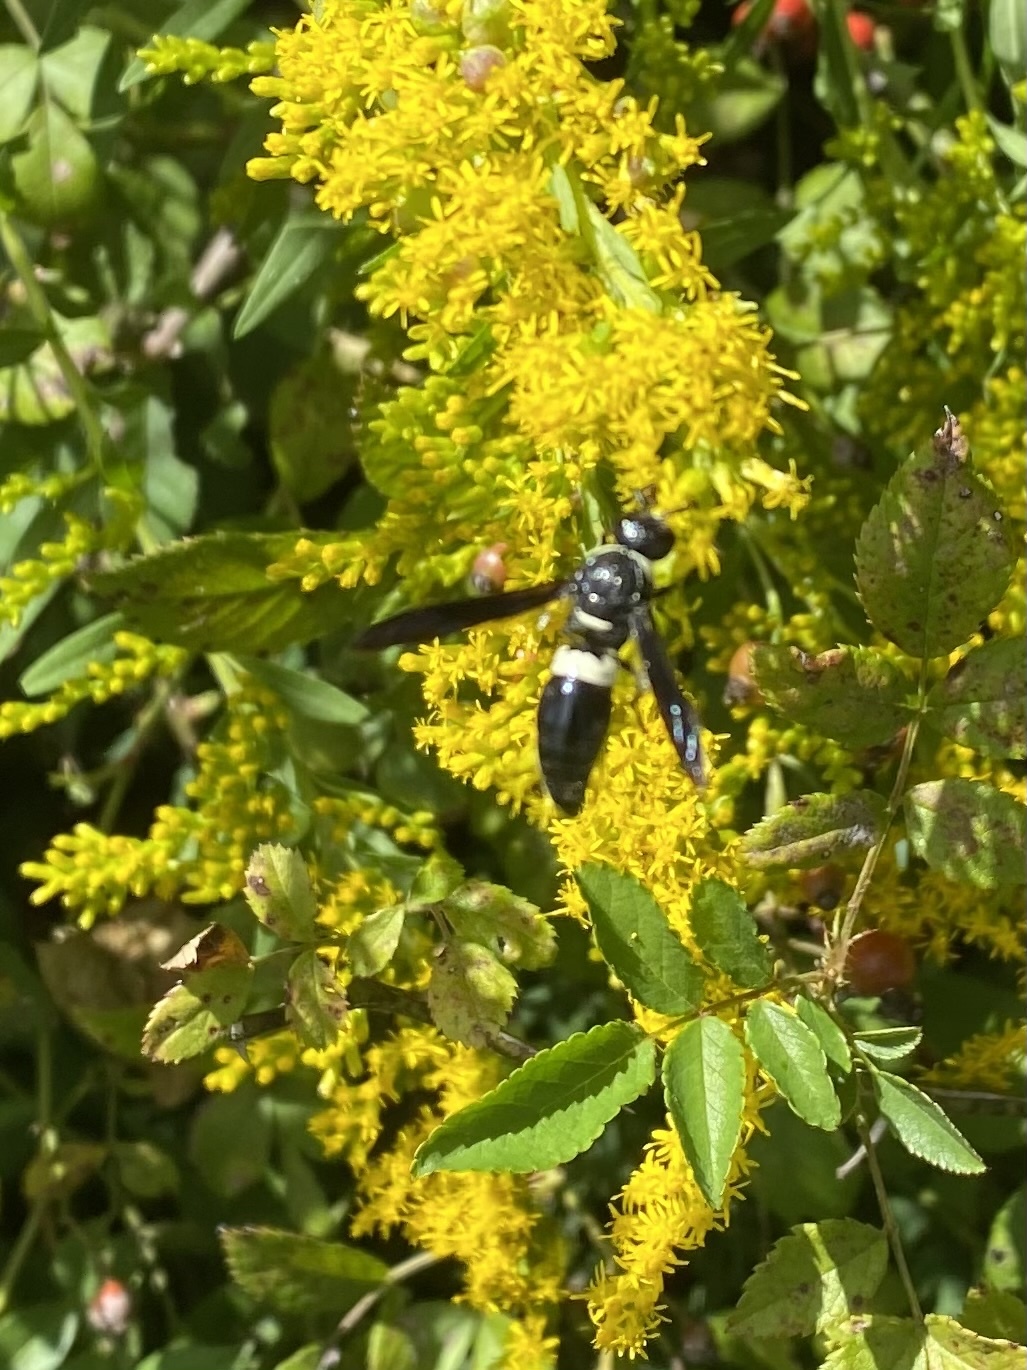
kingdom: Animalia
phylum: Arthropoda
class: Insecta
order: Hymenoptera
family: Eumenidae
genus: Monobia
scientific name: Monobia quadridens
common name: Four-toothed mason wasp
